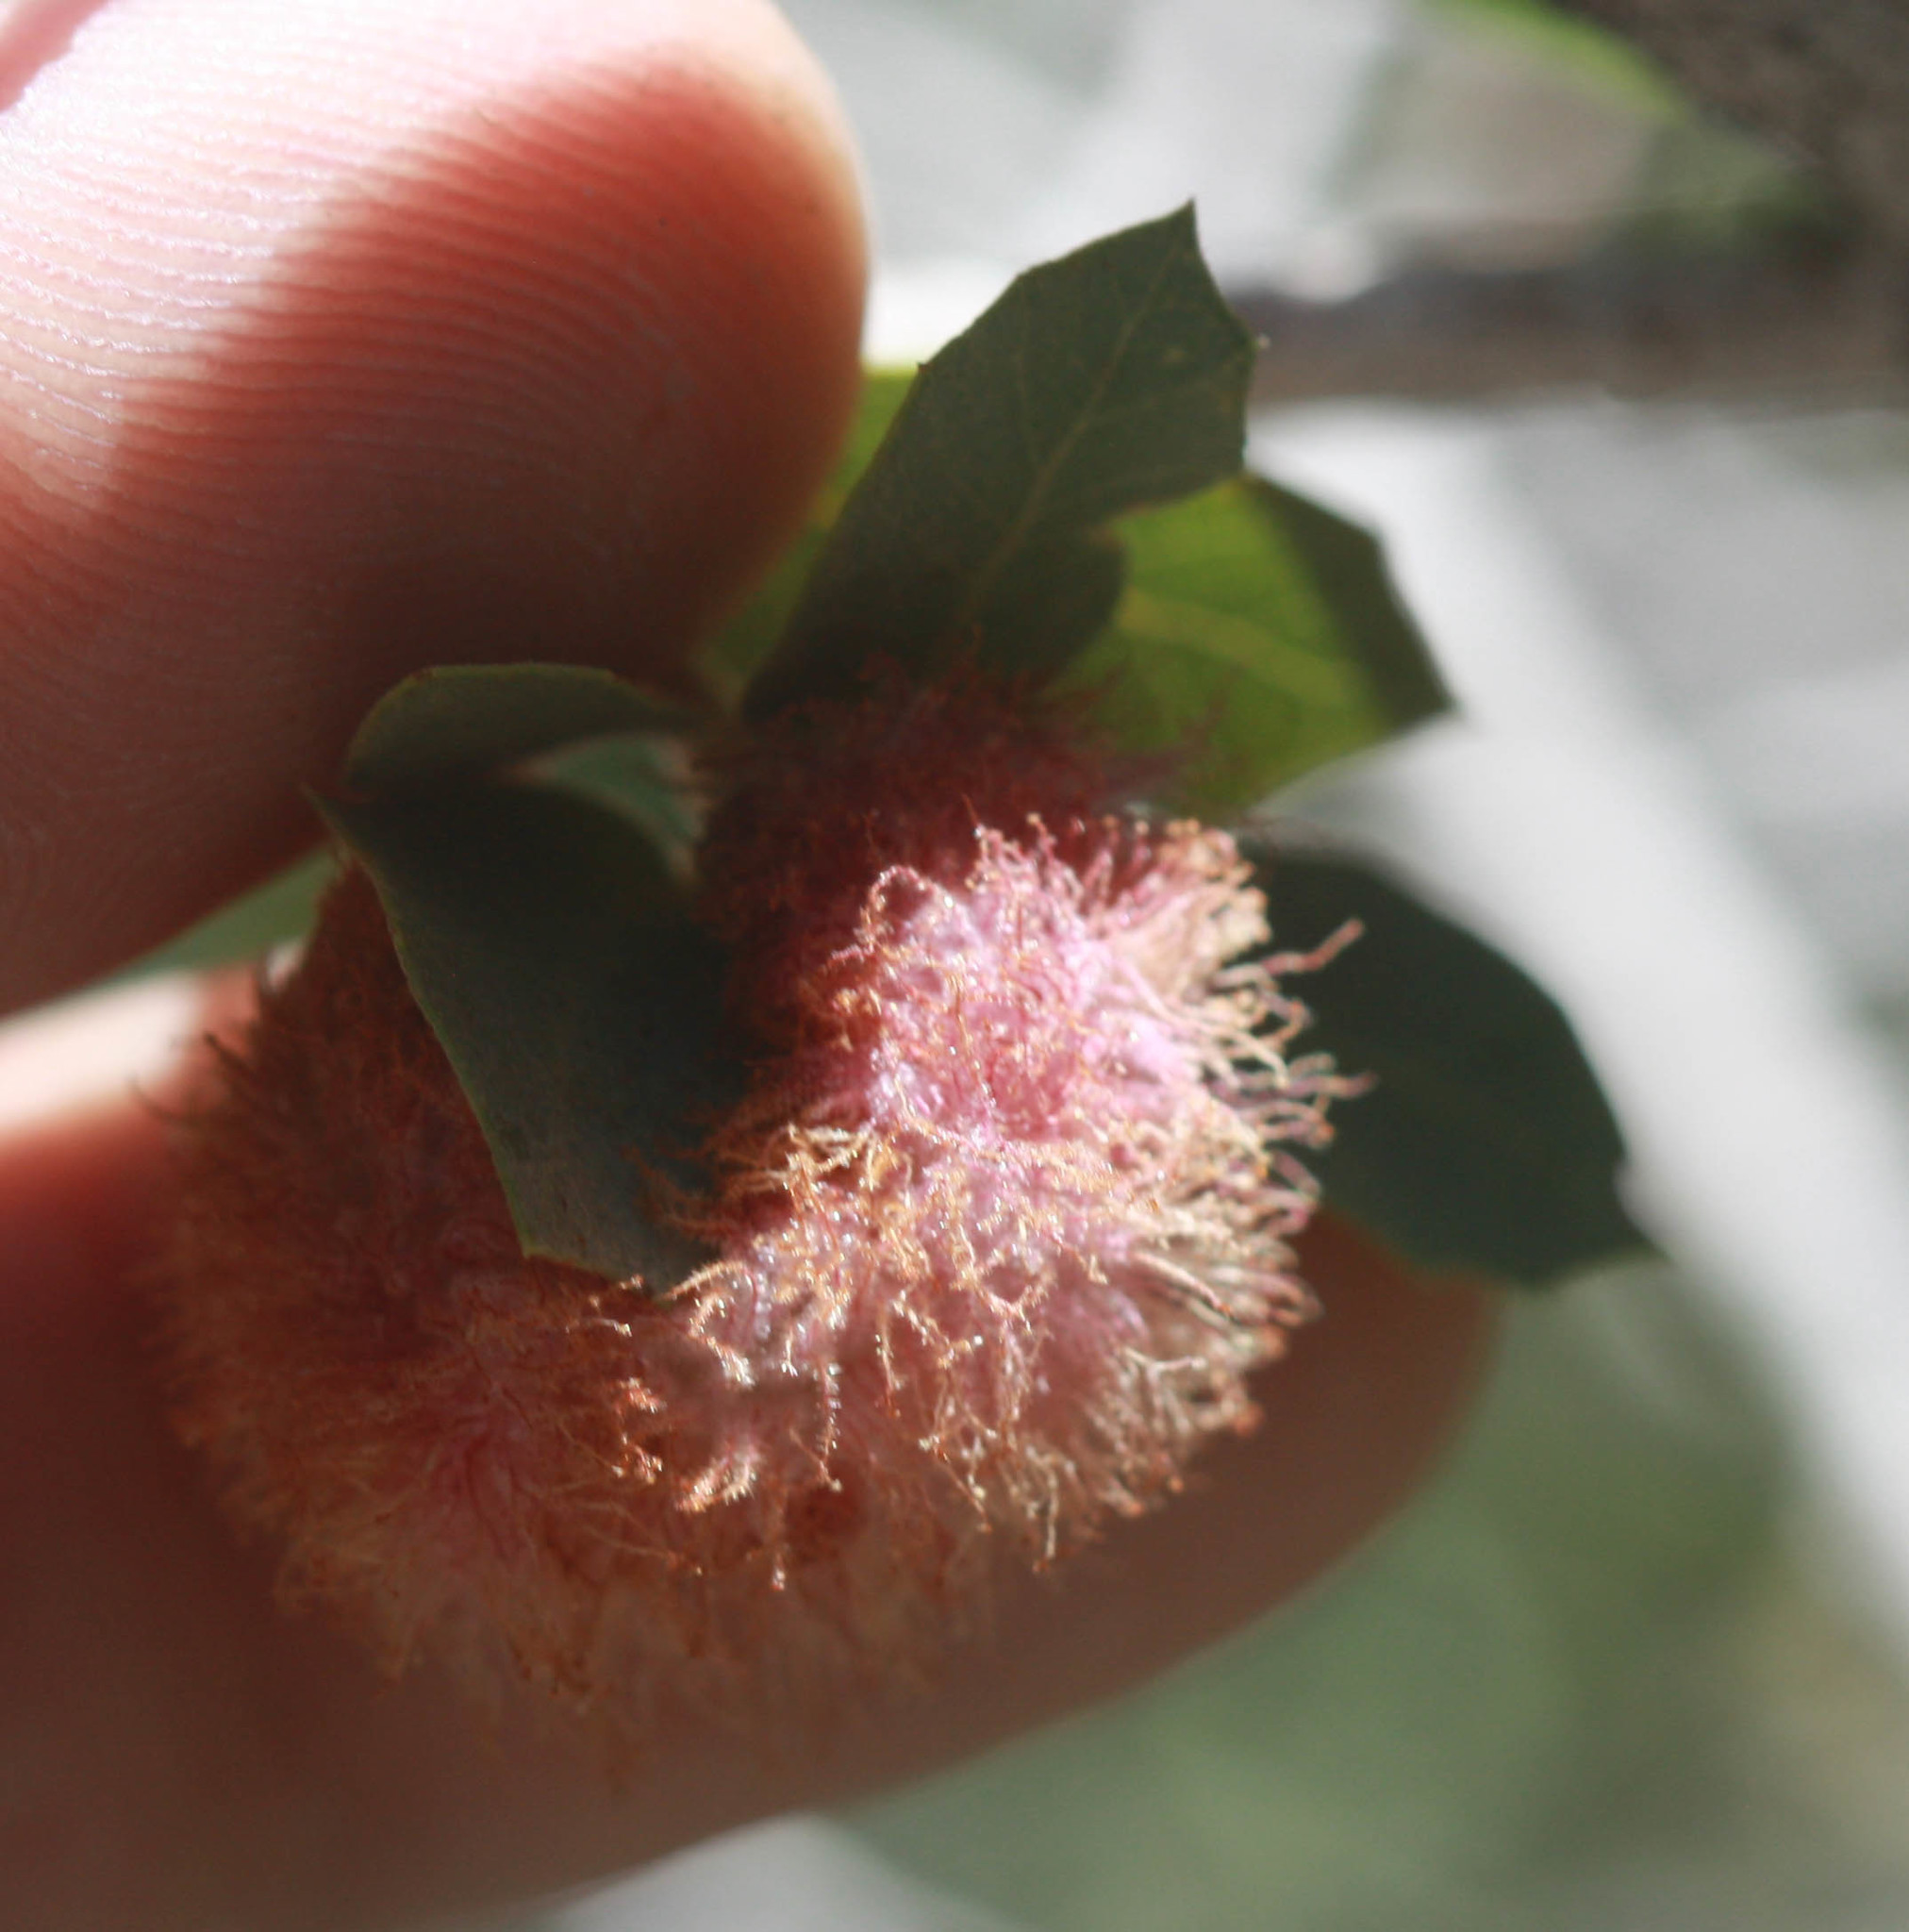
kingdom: Animalia
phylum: Arthropoda
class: Insecta
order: Hymenoptera
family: Cynipidae
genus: Andricus
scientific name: Andricus
